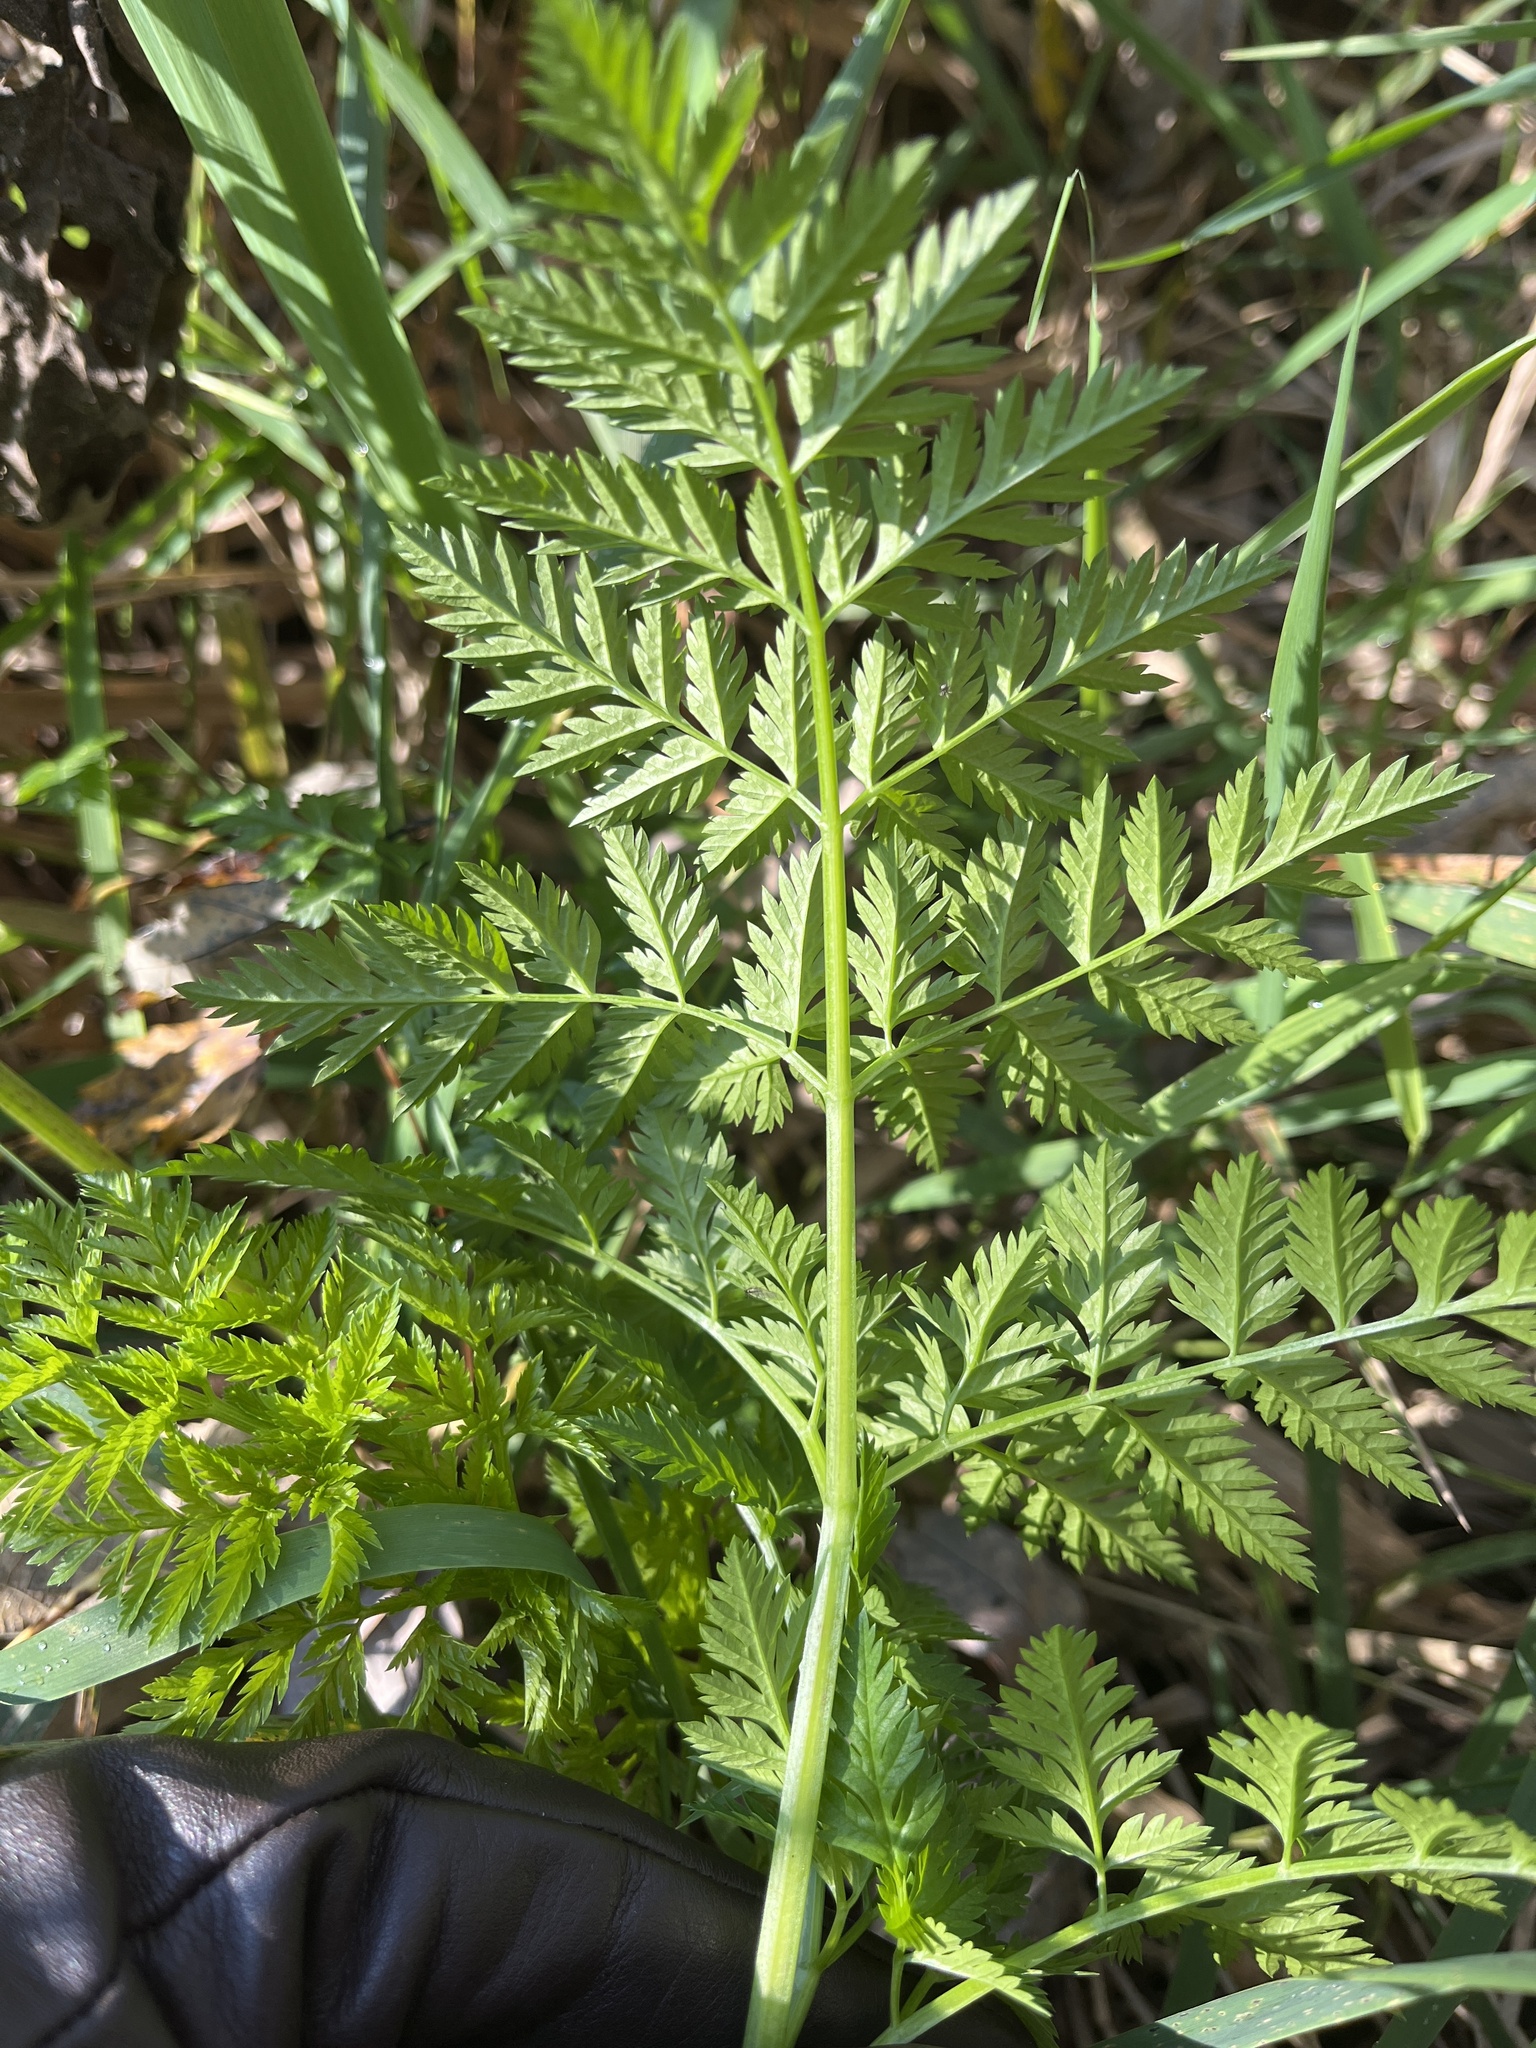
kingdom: Plantae
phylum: Tracheophyta
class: Magnoliopsida
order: Apiales
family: Apiaceae
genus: Conium
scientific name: Conium maculatum
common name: Hemlock
